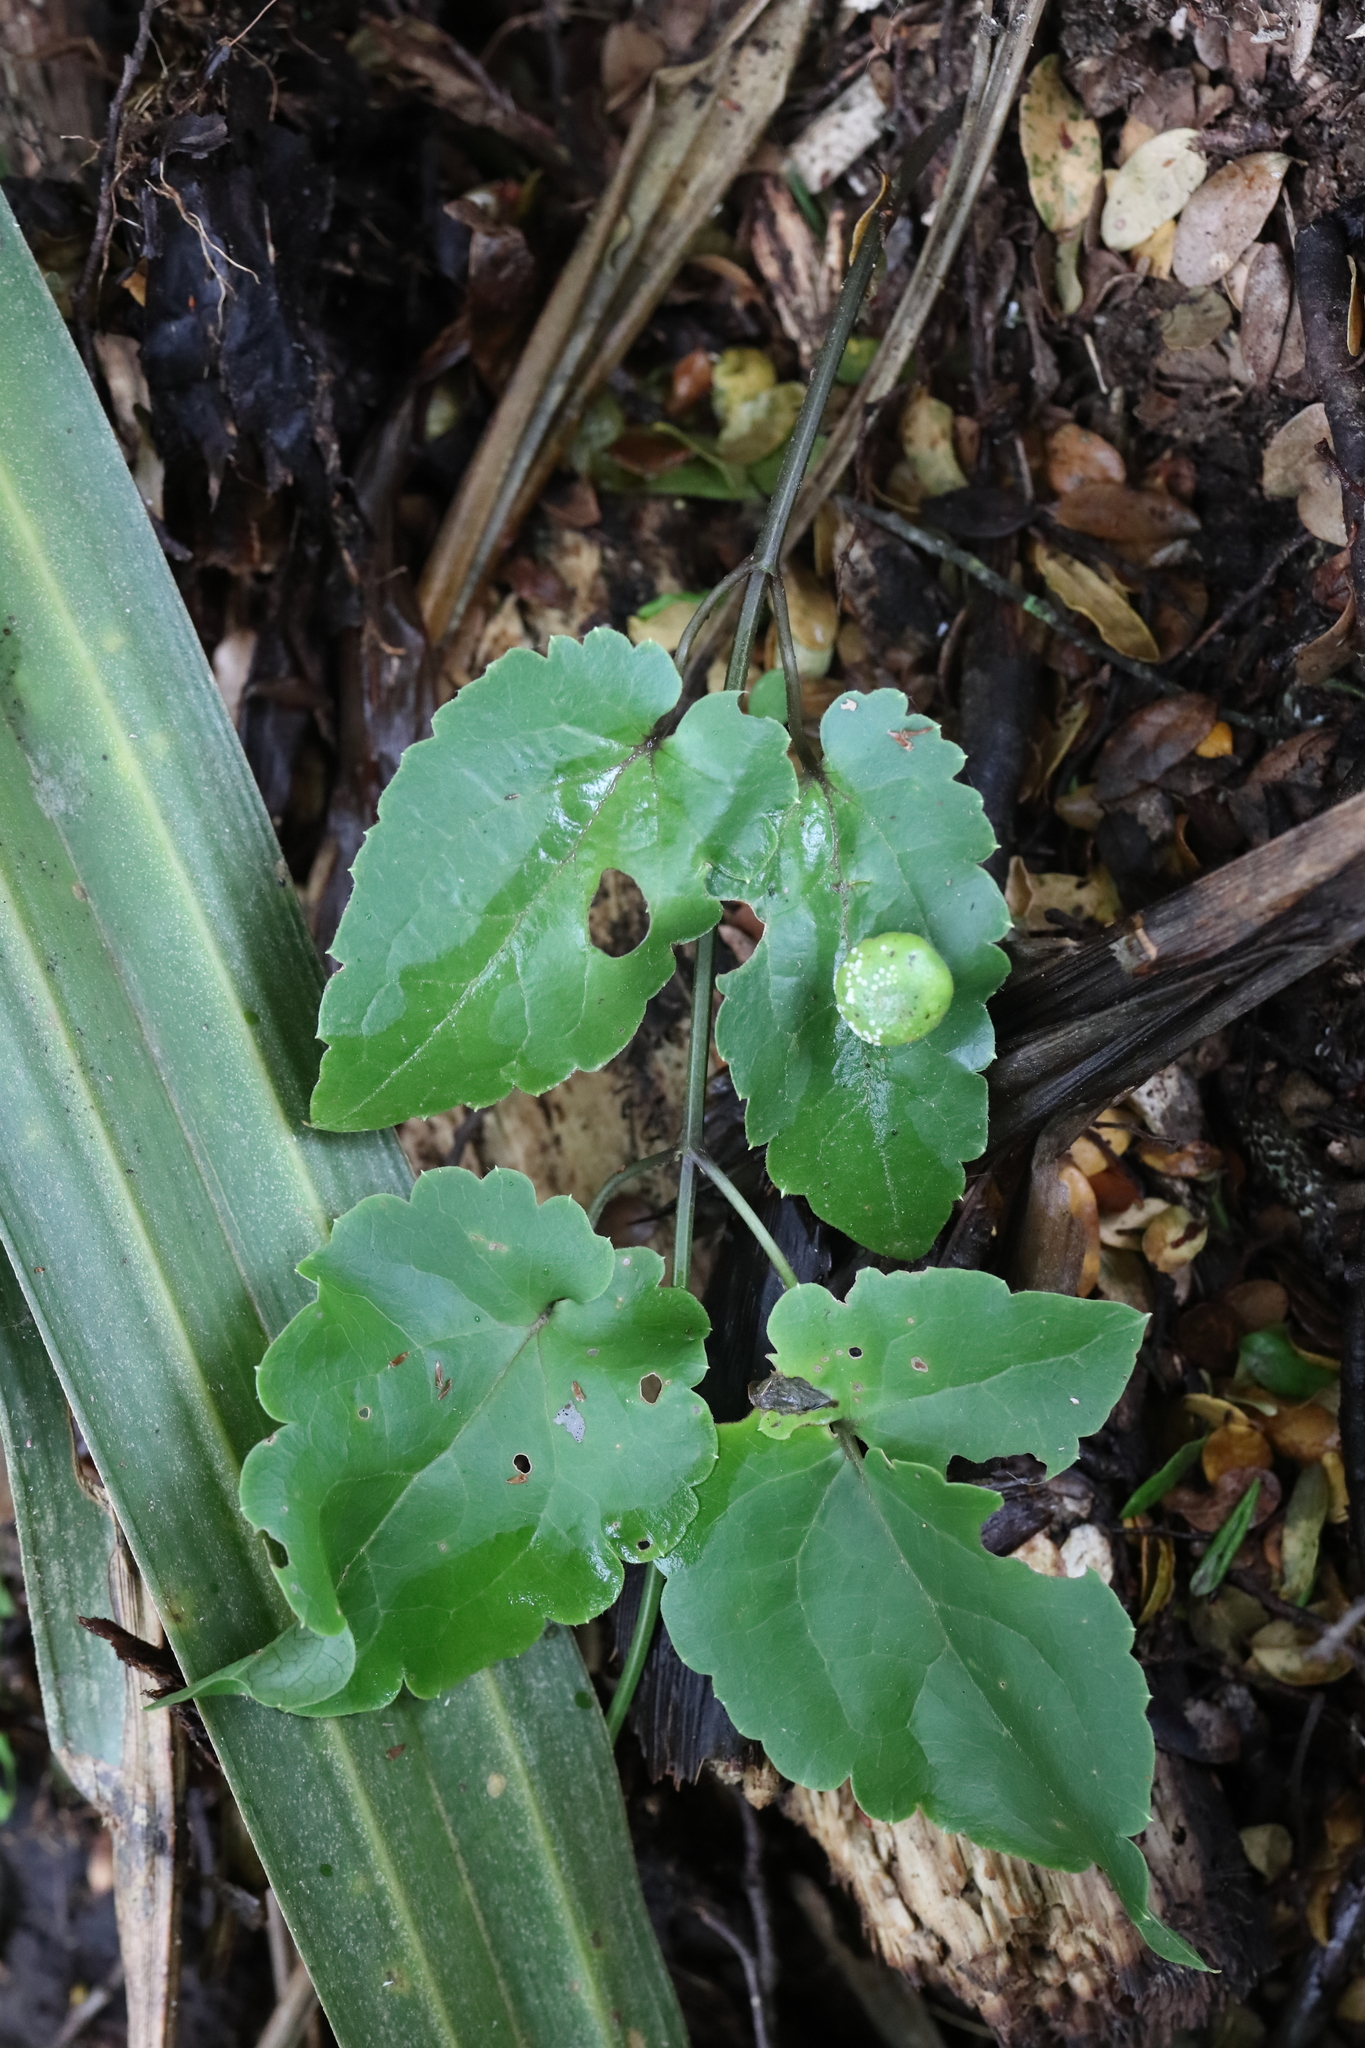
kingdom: Fungi
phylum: Basidiomycota
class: Pucciniomycetes
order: Pucciniales
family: Pucciniaceae
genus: Puccinia
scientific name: Puccinia otagensis
